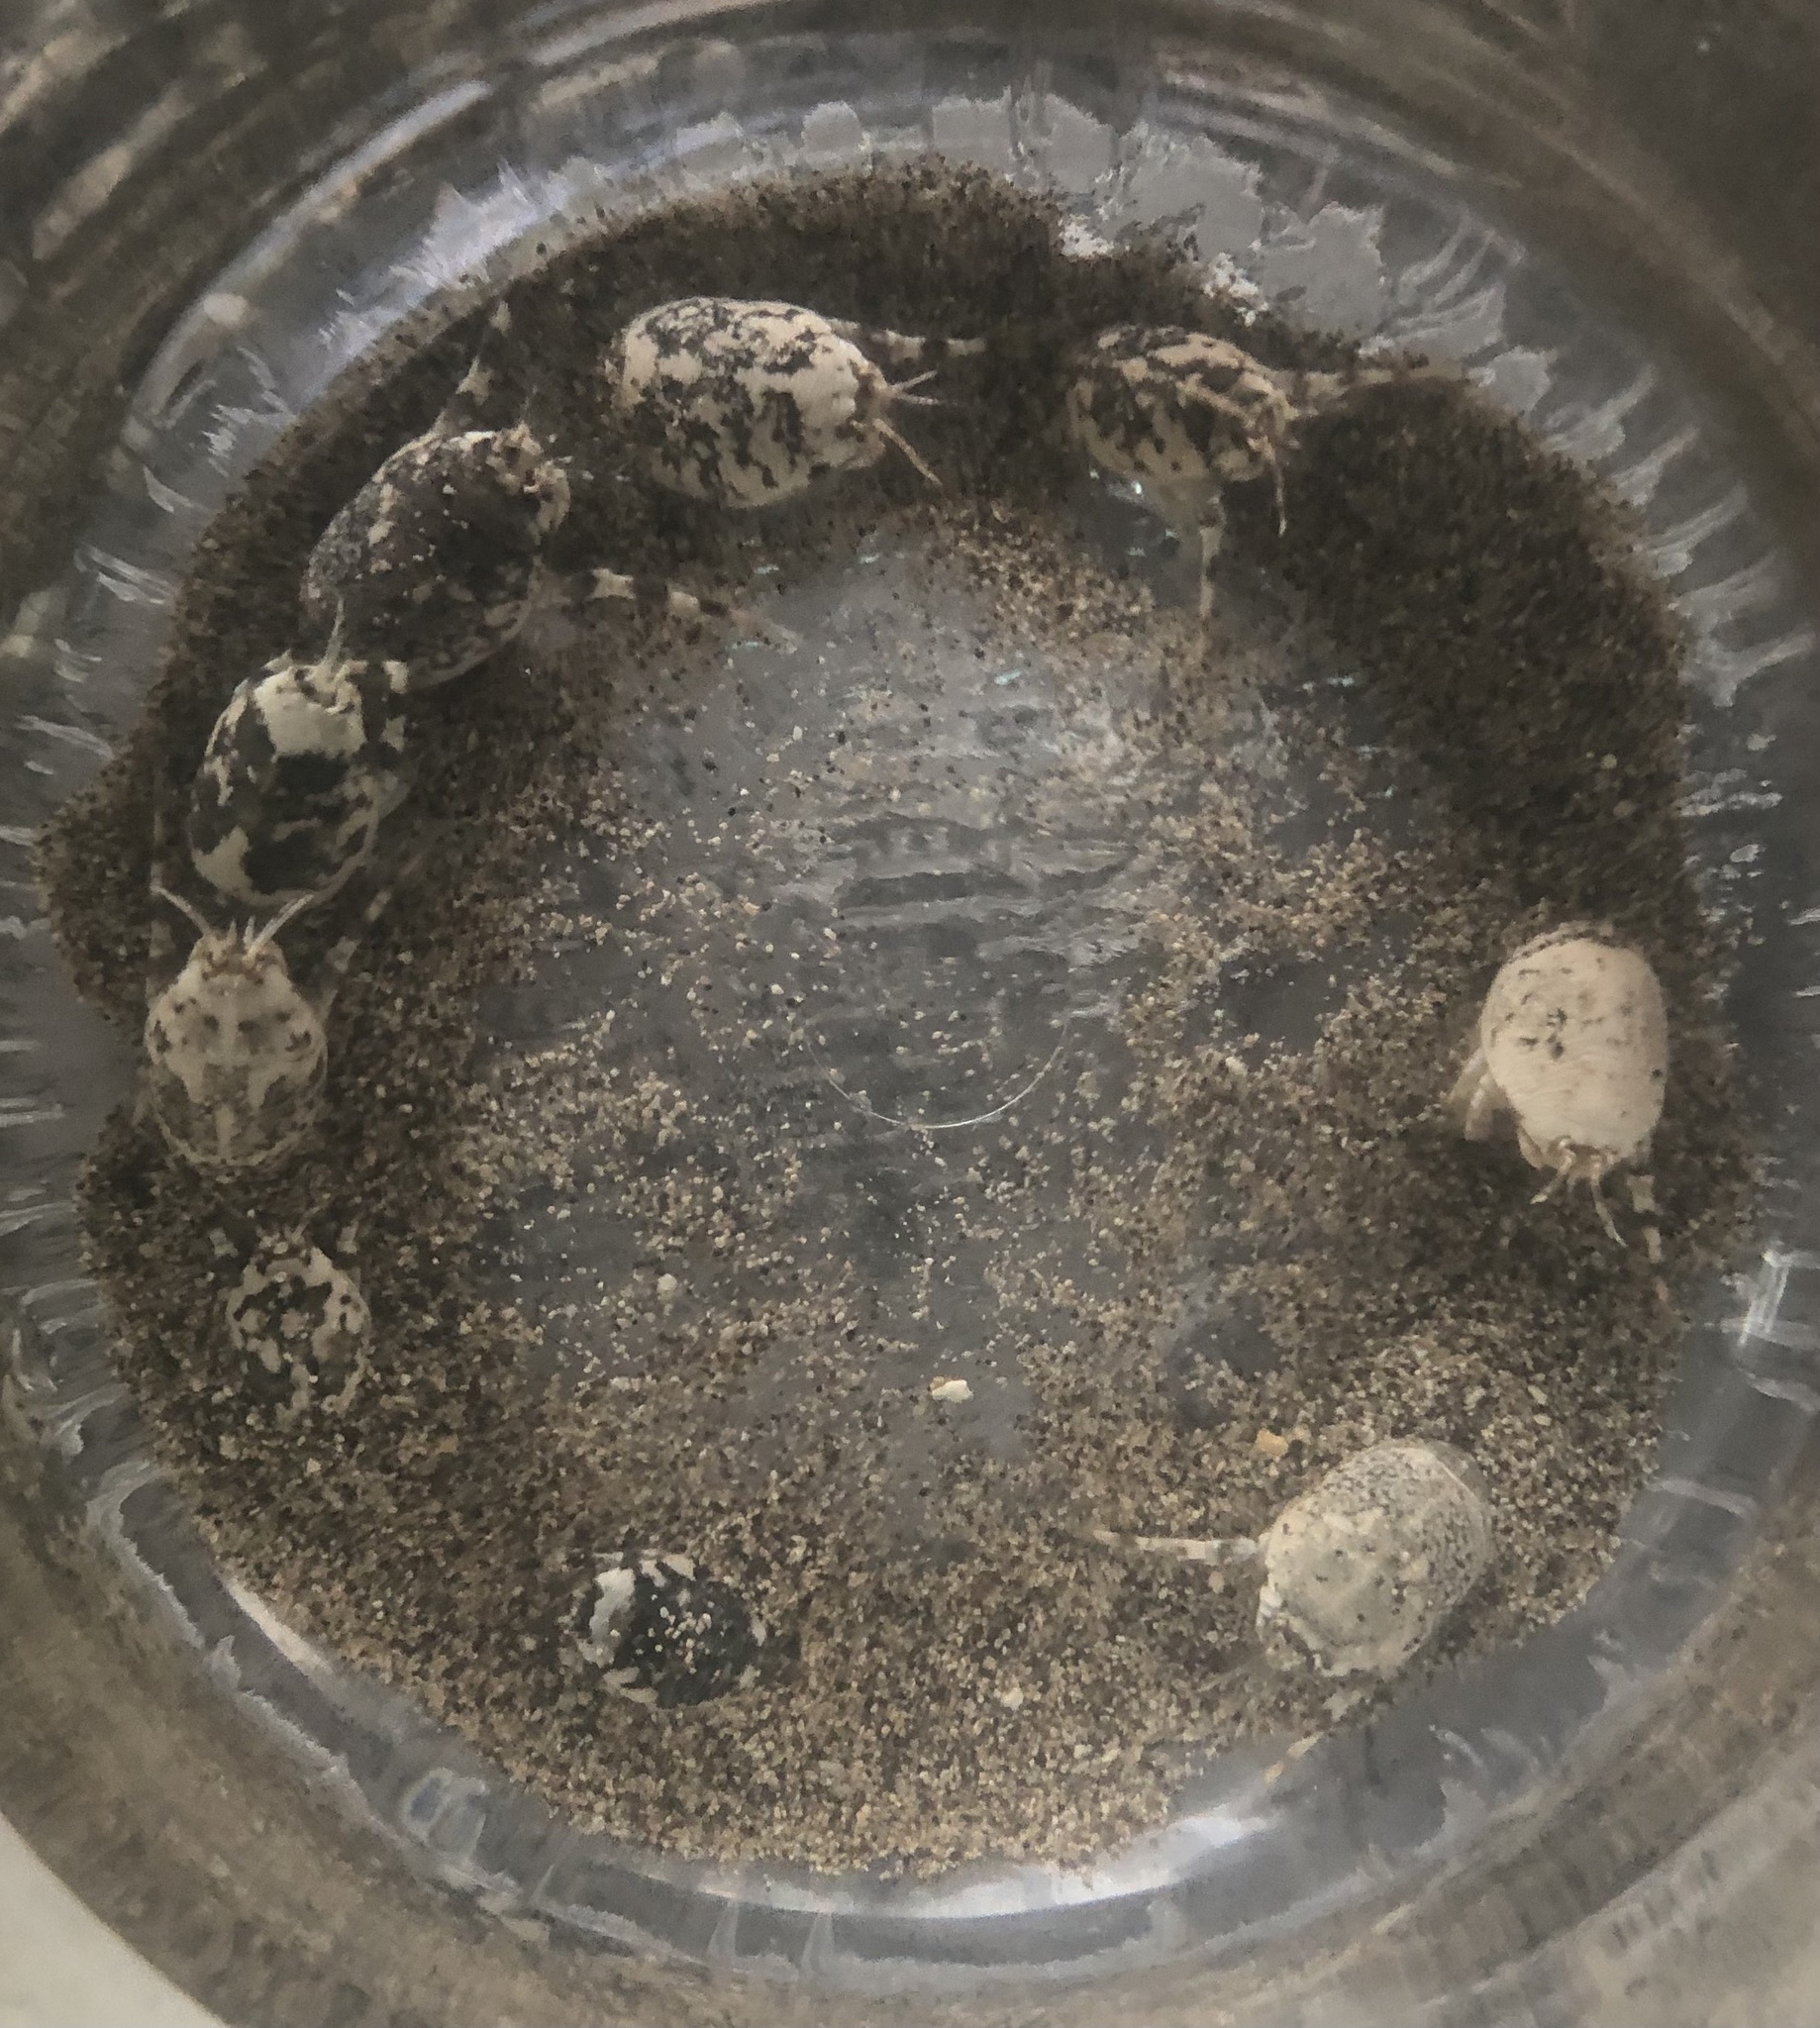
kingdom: Animalia
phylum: Arthropoda
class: Malacostraca
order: Decapoda
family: Hippidae
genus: Hippa
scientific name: Hippa marmorata
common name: Pacific mole crab
